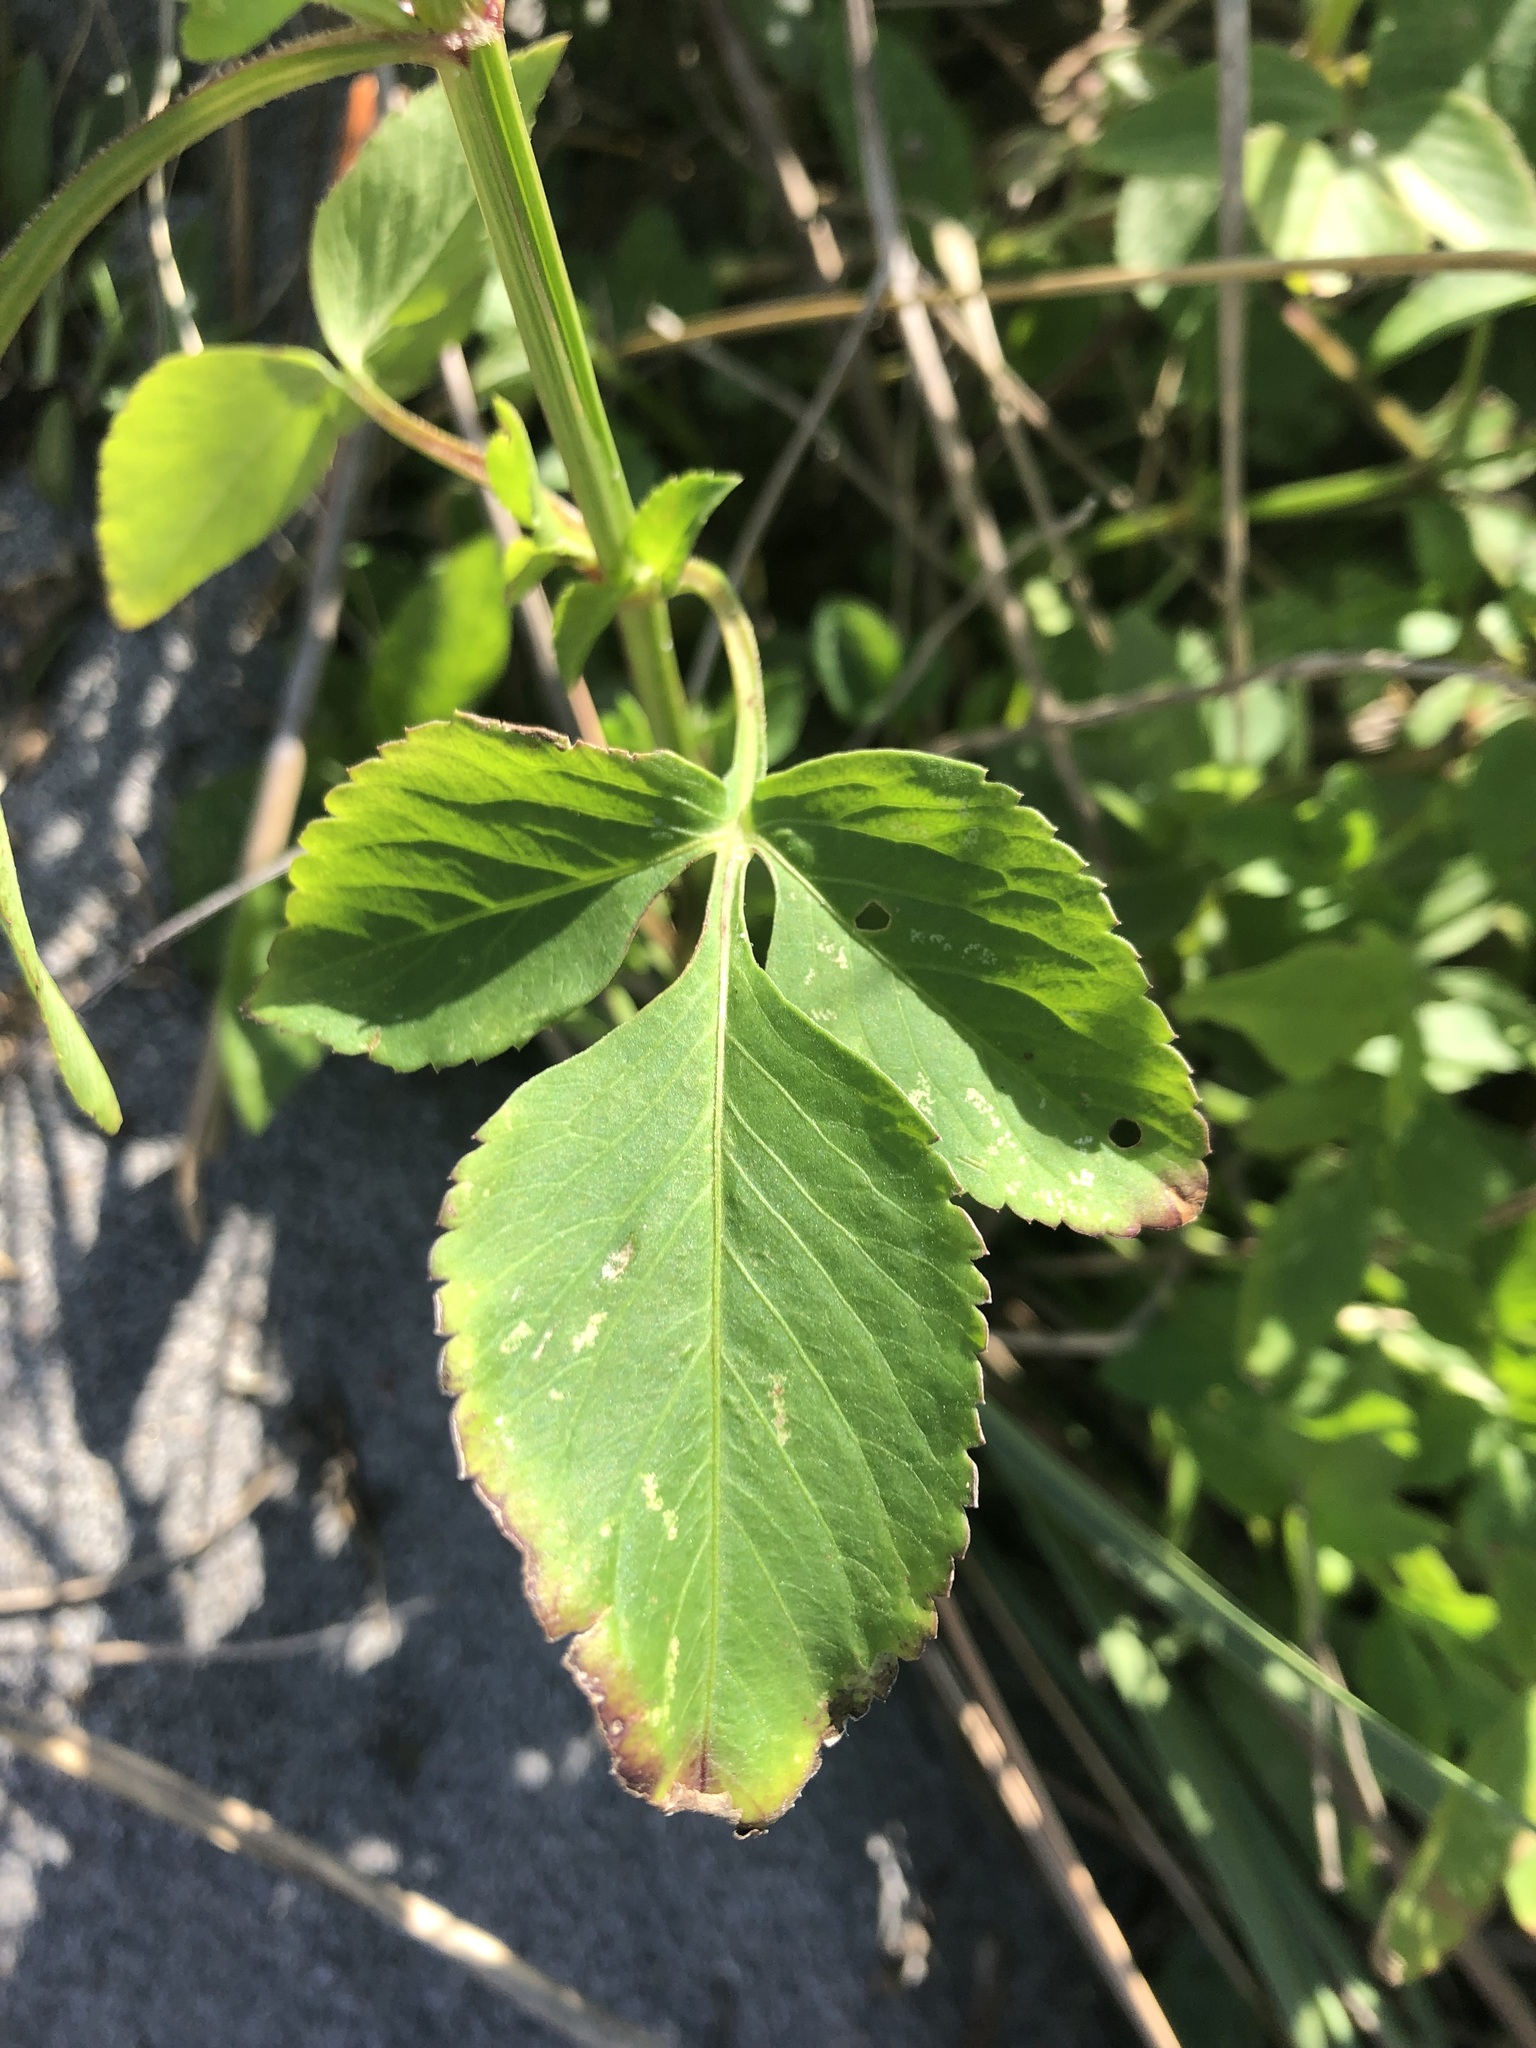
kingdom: Plantae
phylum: Tracheophyta
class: Magnoliopsida
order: Asterales
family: Asteraceae
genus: Bidens
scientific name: Bidens alba
